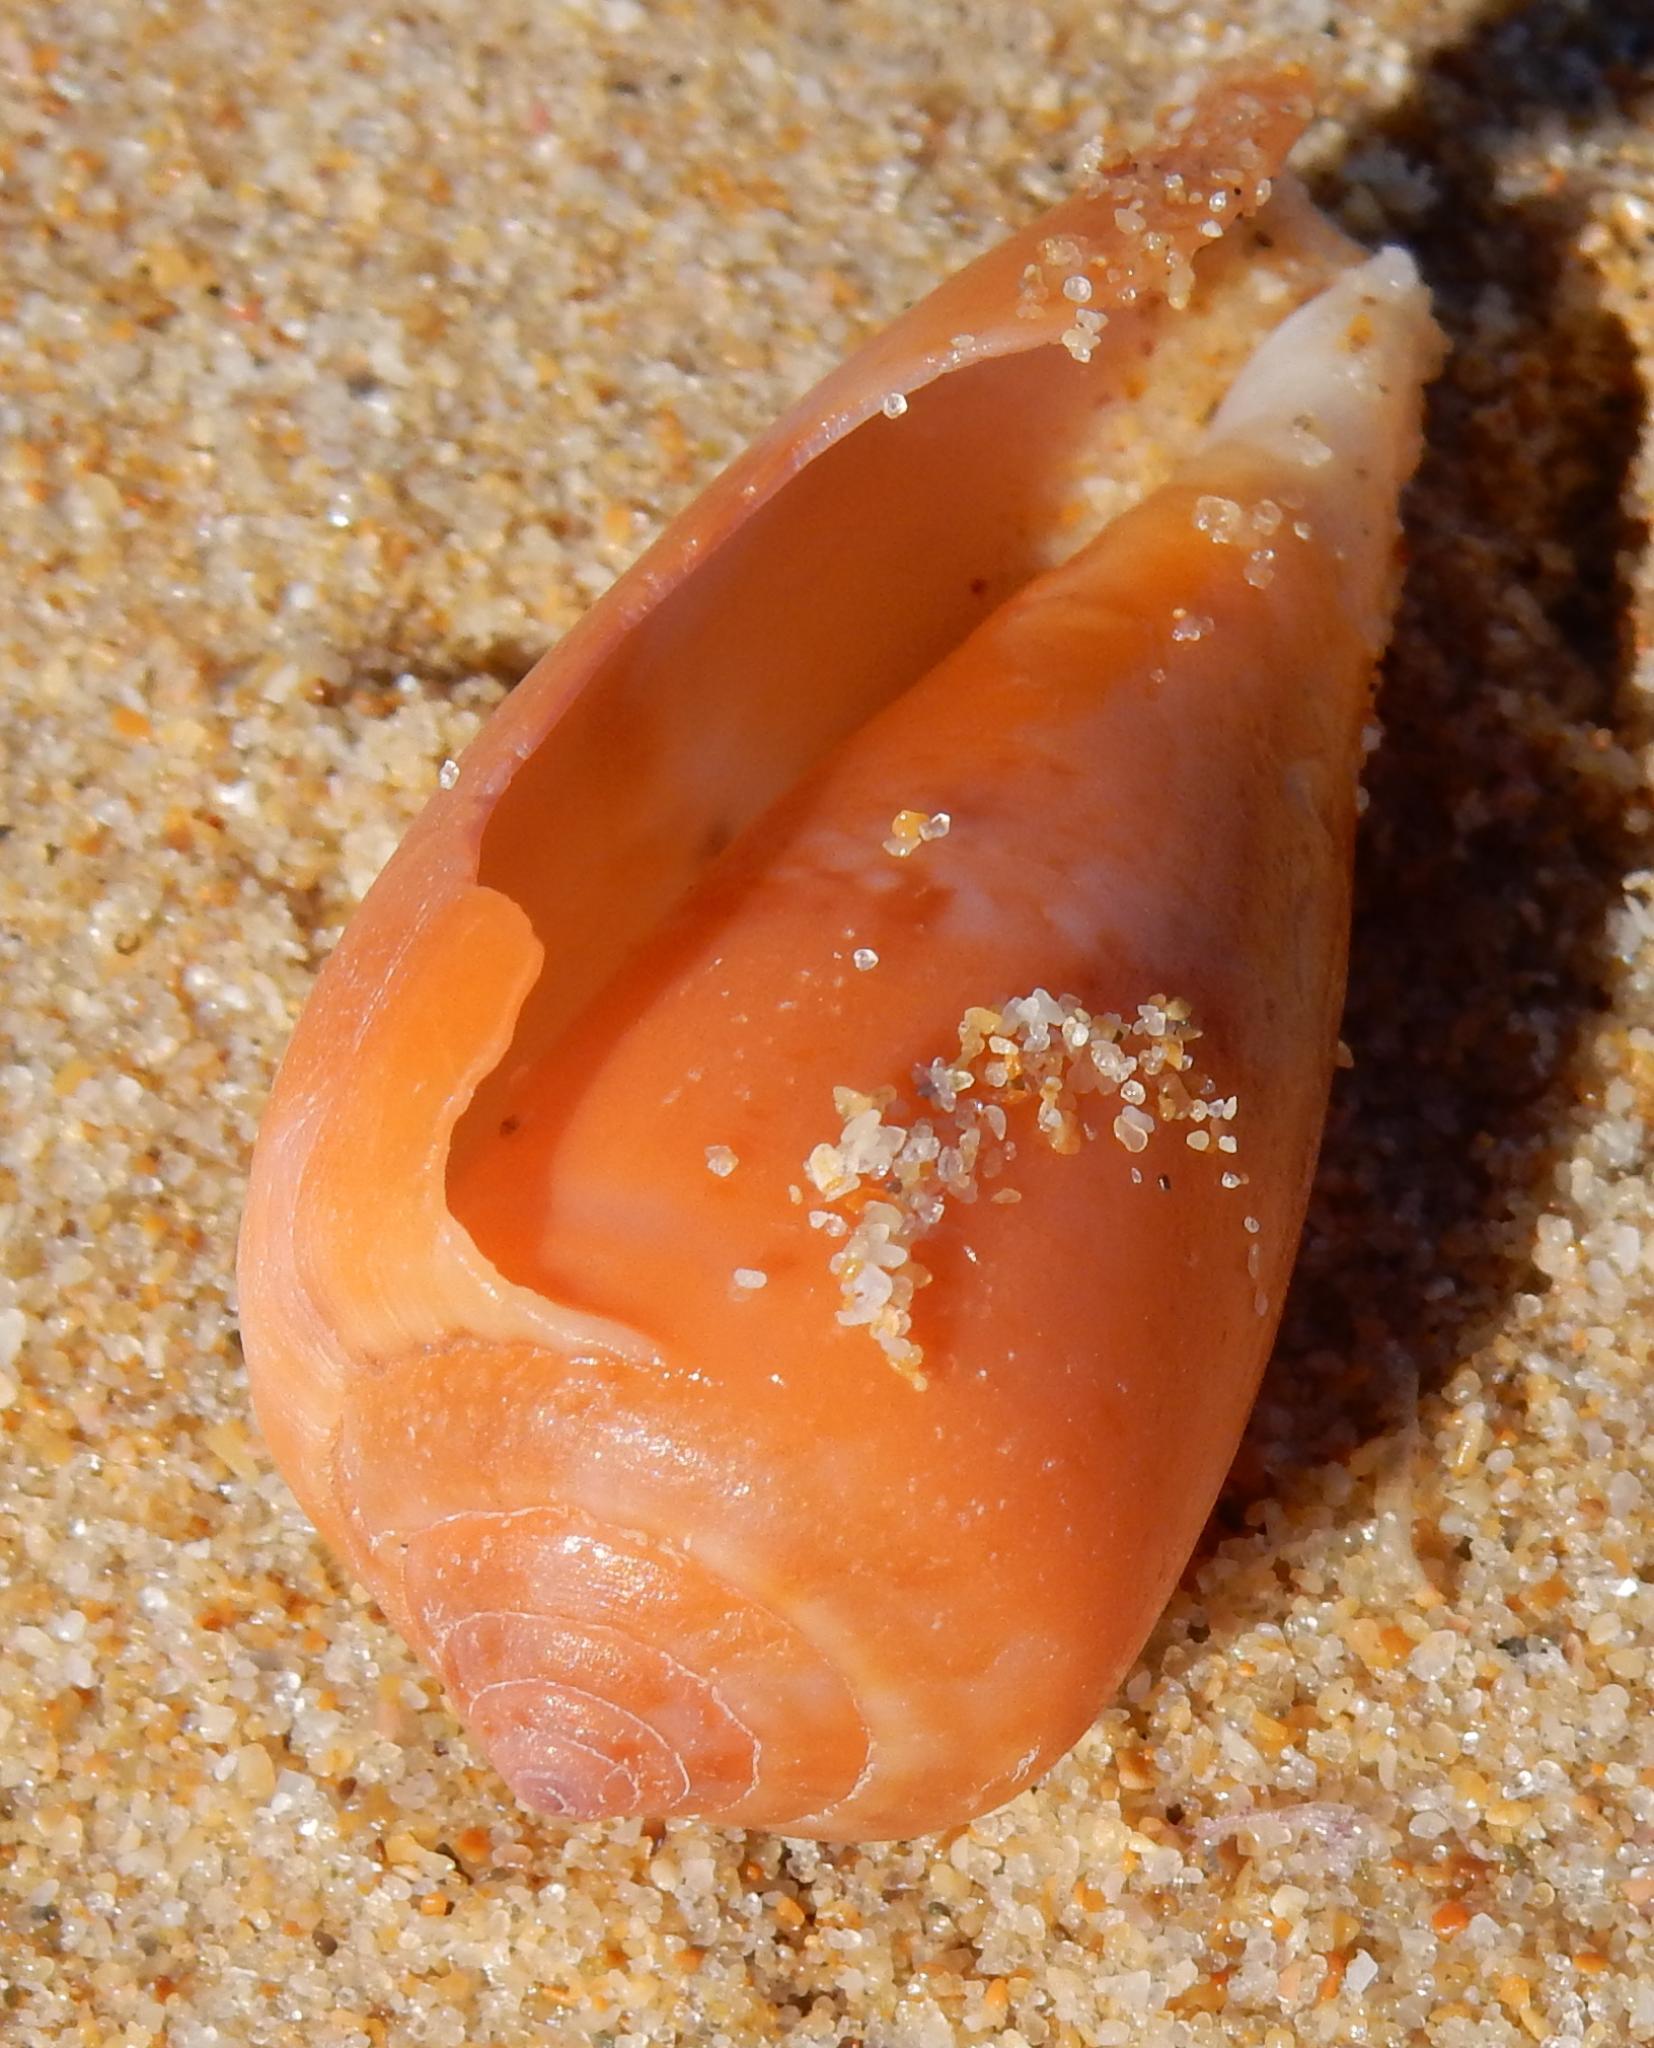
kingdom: Animalia
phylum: Mollusca
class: Gastropoda
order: Neogastropoda
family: Conidae
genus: Conus
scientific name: Conus tinianus
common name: Ruddy cone
